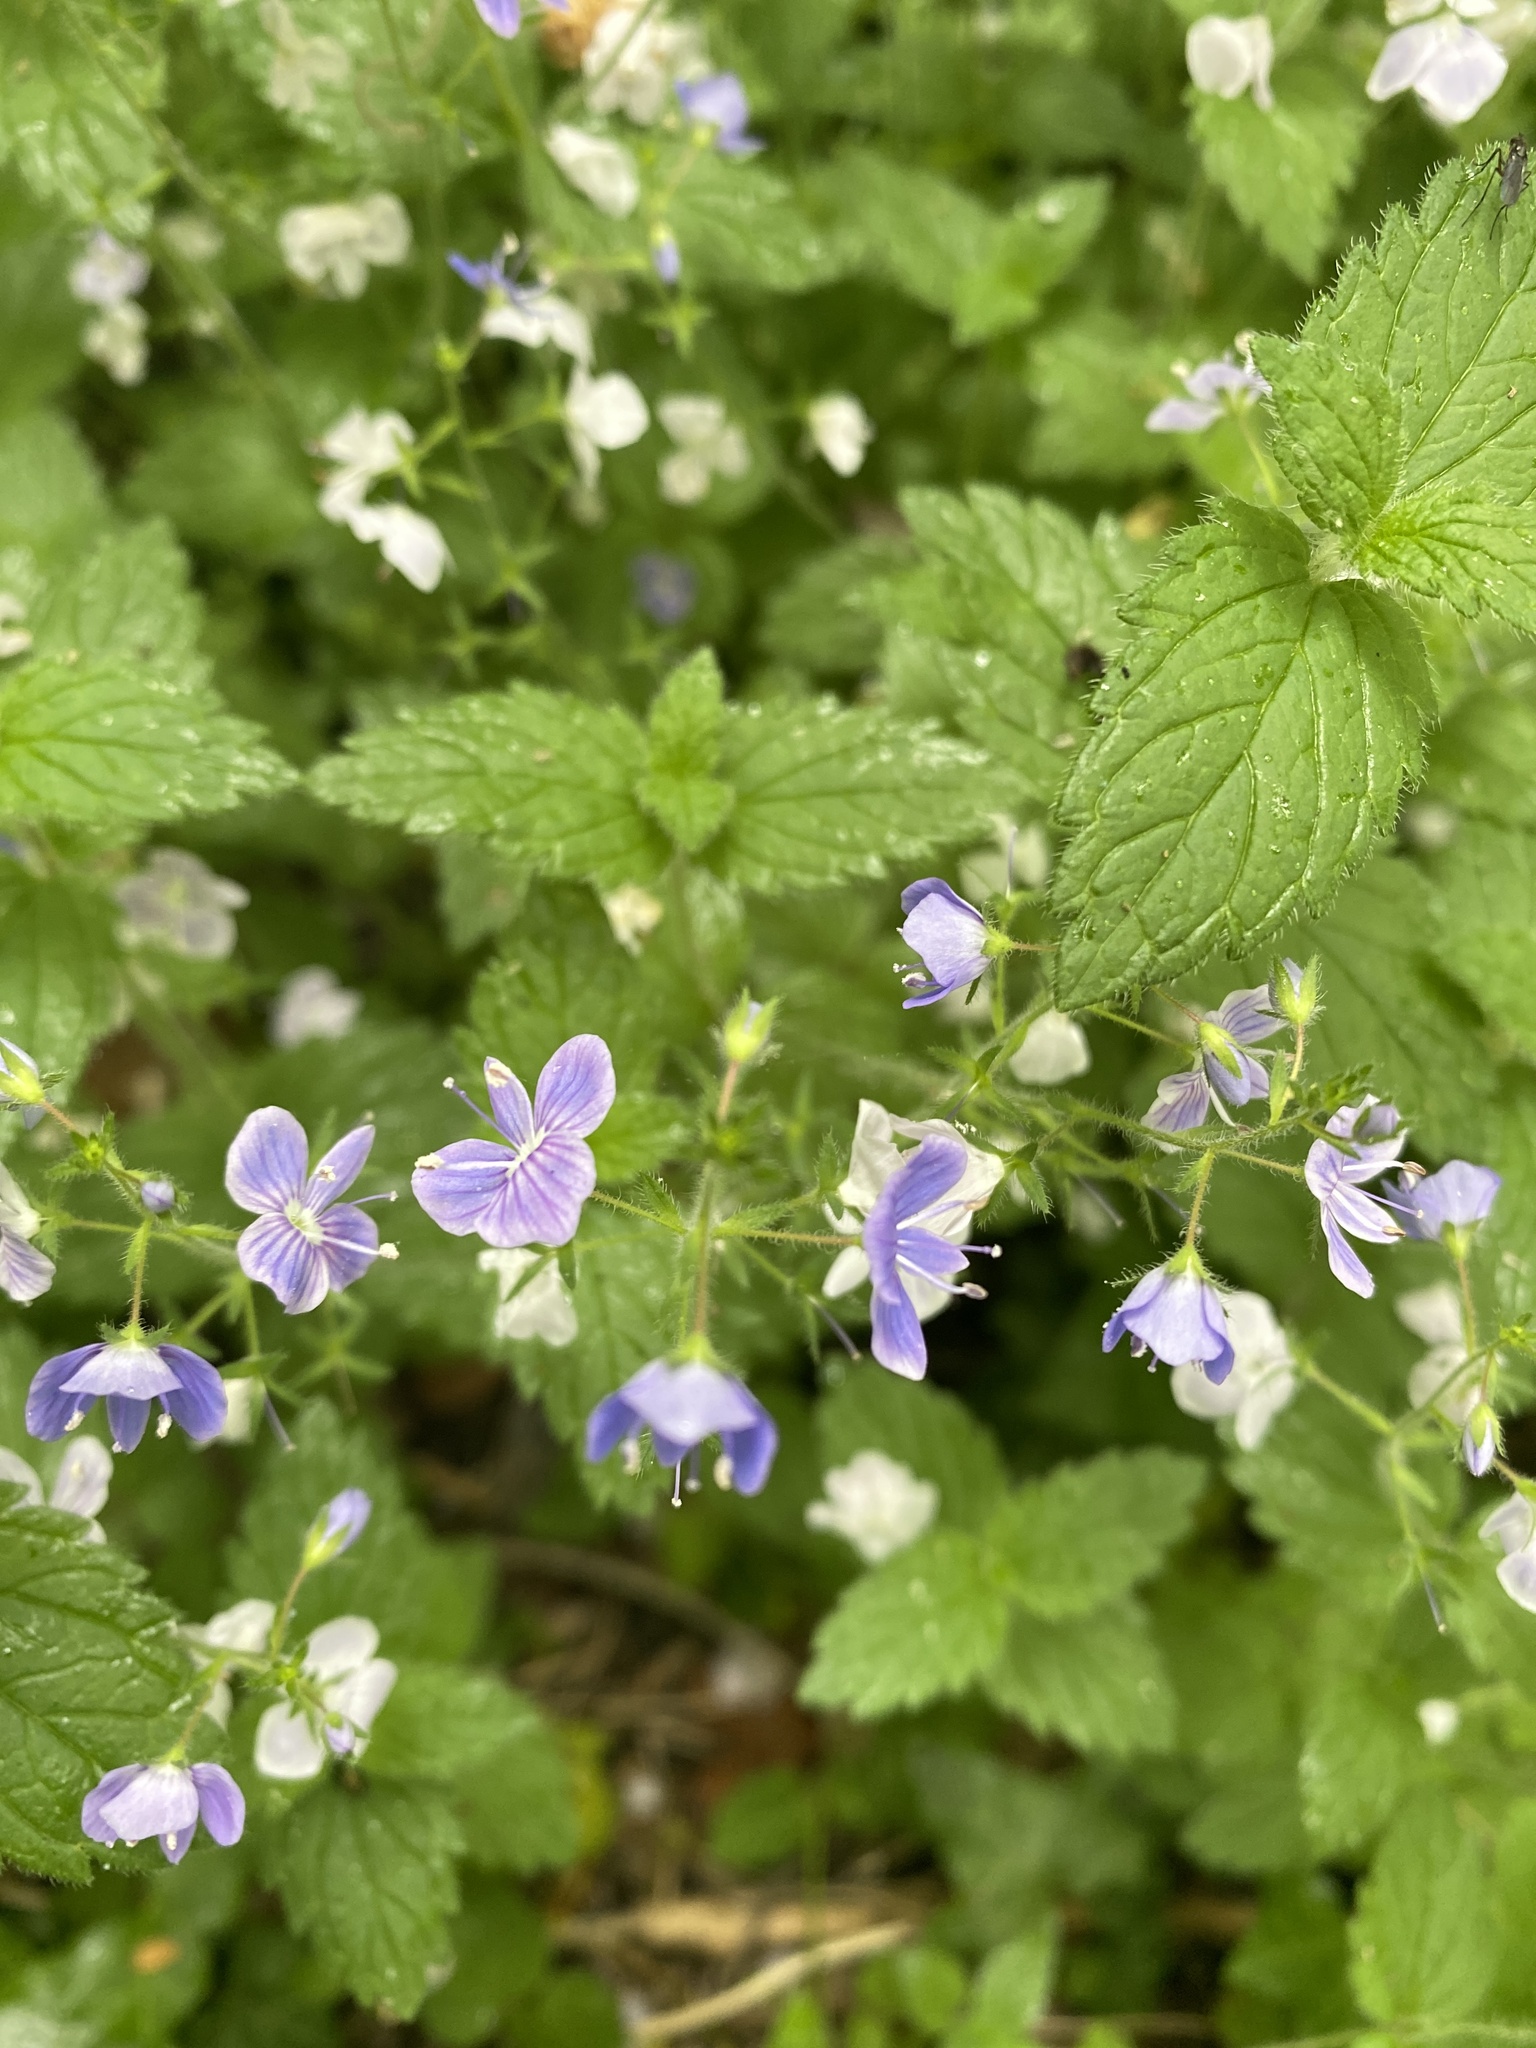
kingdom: Plantae
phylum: Tracheophyta
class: Magnoliopsida
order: Lamiales
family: Plantaginaceae
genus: Veronica
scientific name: Veronica chamaedrys
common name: Germander speedwell
